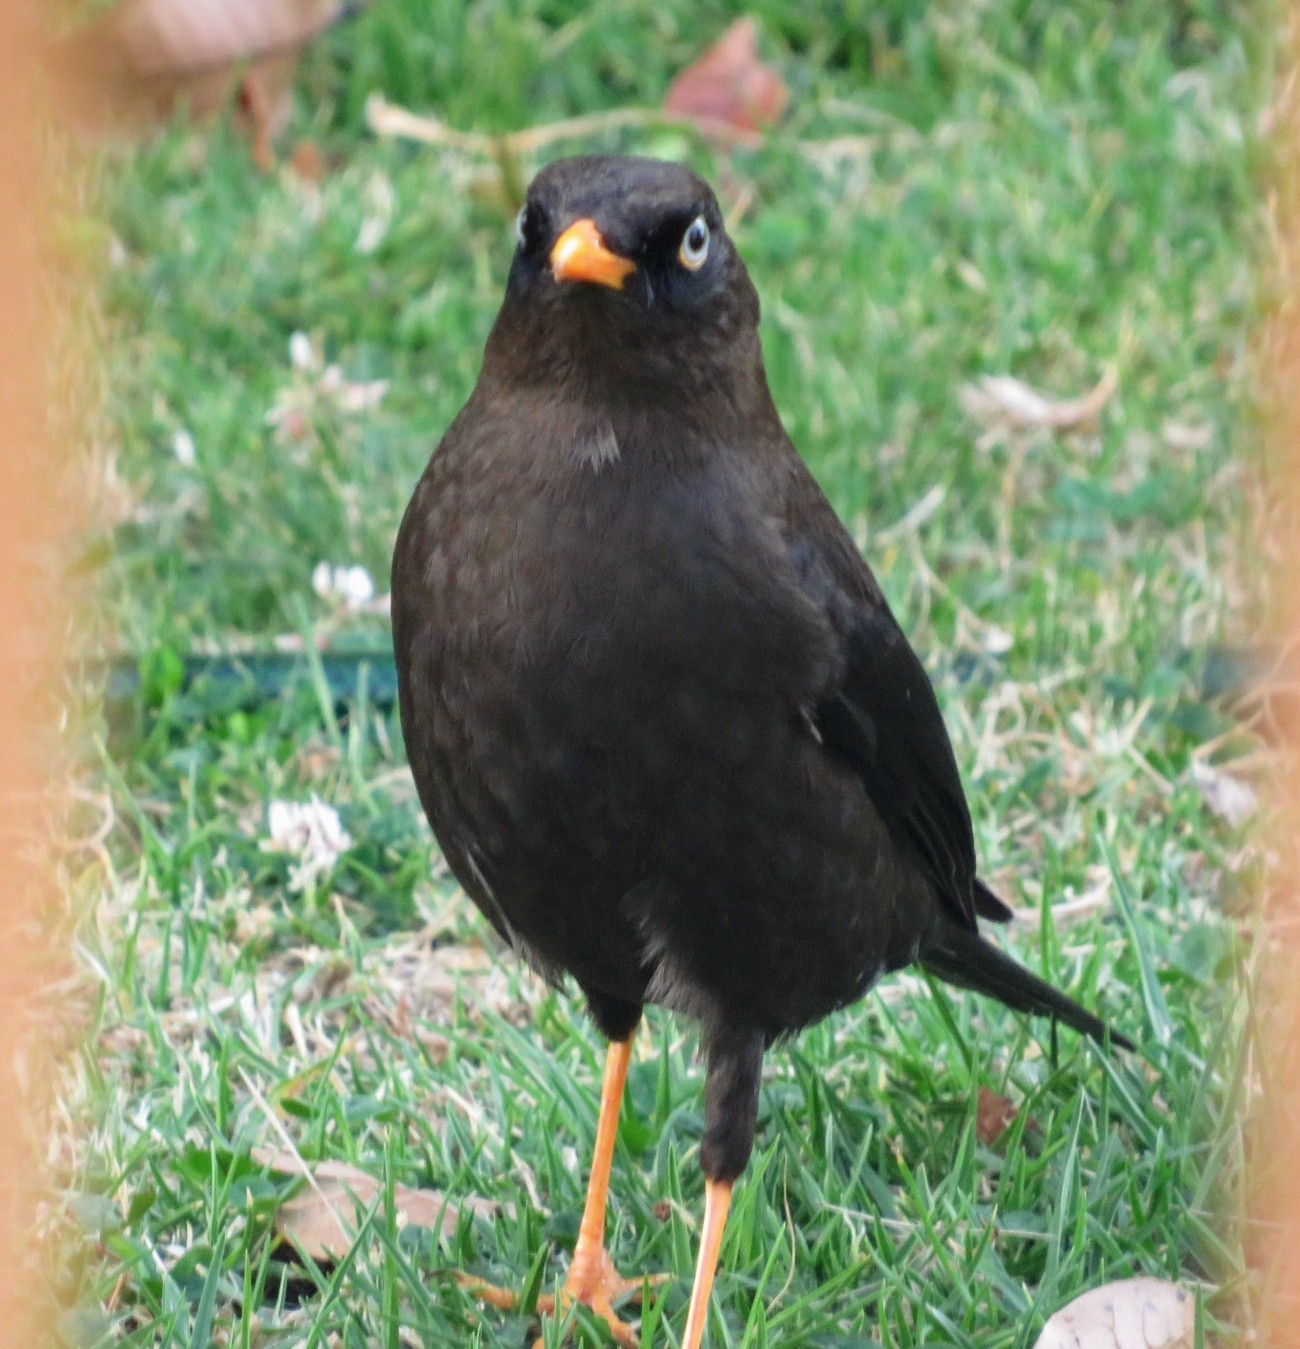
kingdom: Animalia
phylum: Chordata
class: Aves
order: Passeriformes
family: Turdidae
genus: Turdus
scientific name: Turdus nigrescens
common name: Sooty thrush
